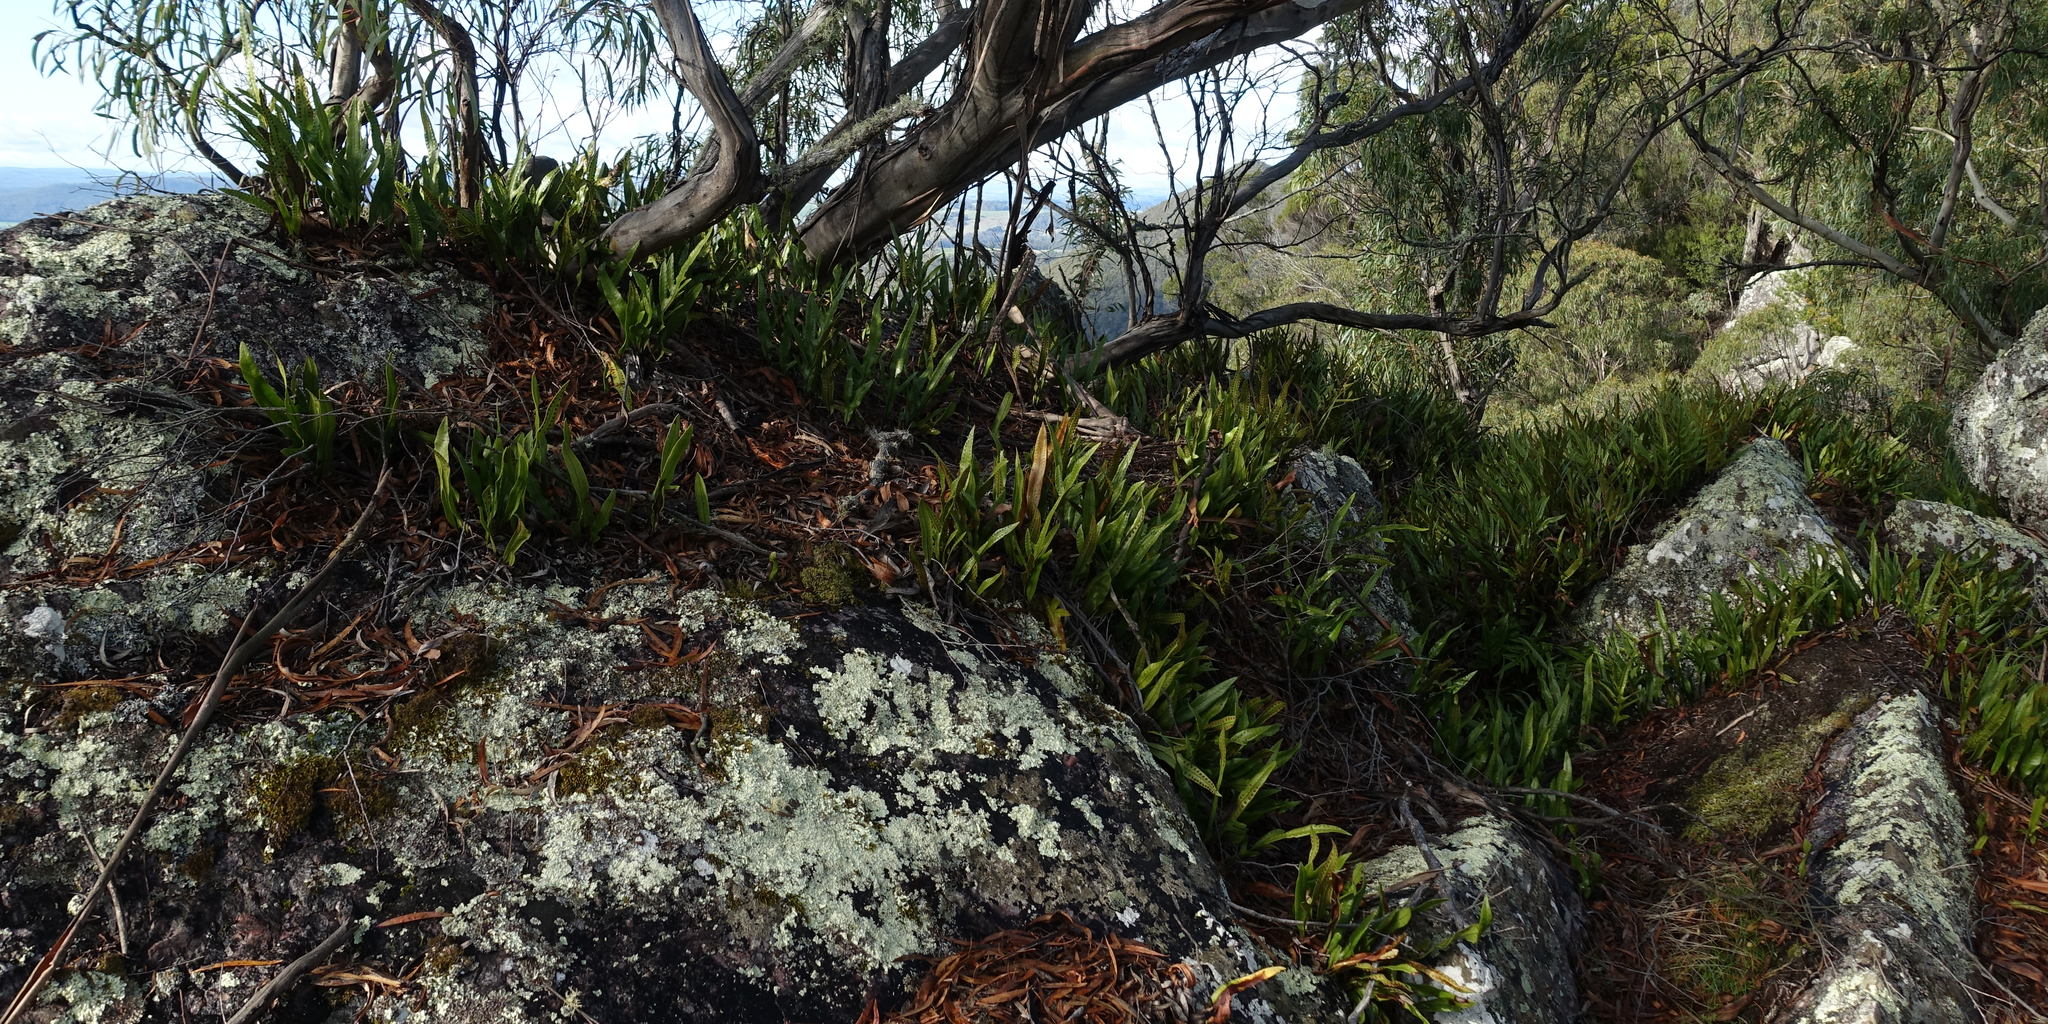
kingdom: Plantae
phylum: Tracheophyta
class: Polypodiopsida
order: Polypodiales
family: Polypodiaceae
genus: Lecanopteris
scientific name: Lecanopteris pustulata
